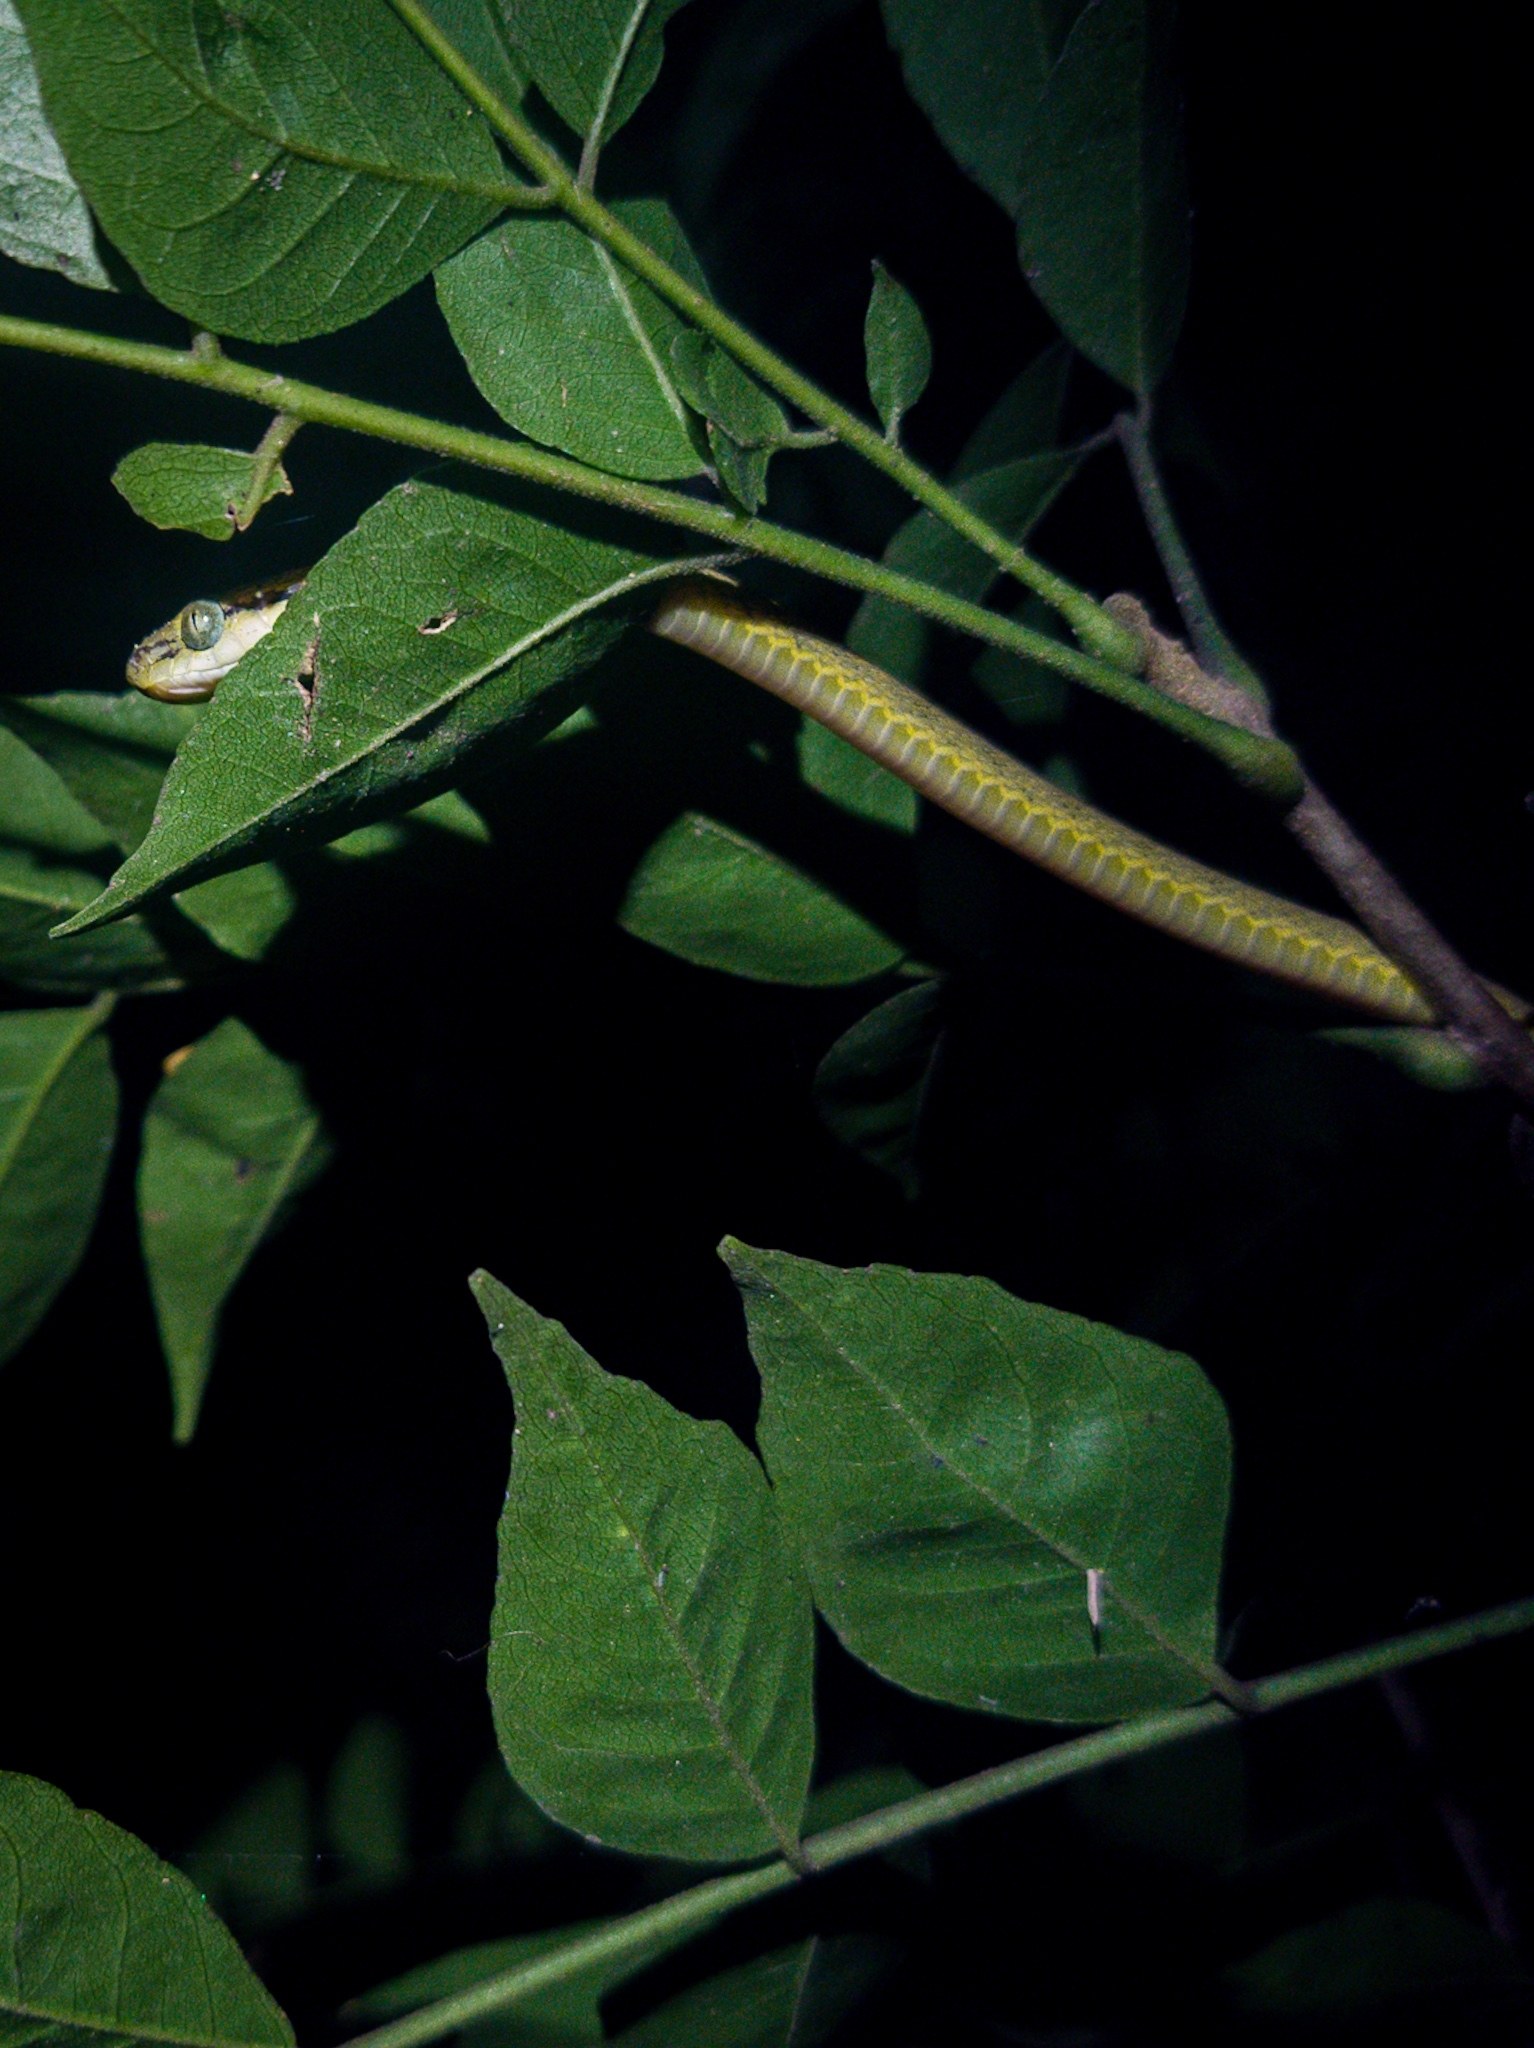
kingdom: Animalia
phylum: Chordata
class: Squamata
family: Colubridae
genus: Boiga
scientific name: Boiga flaviviridis
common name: Yellow-green cat snake
